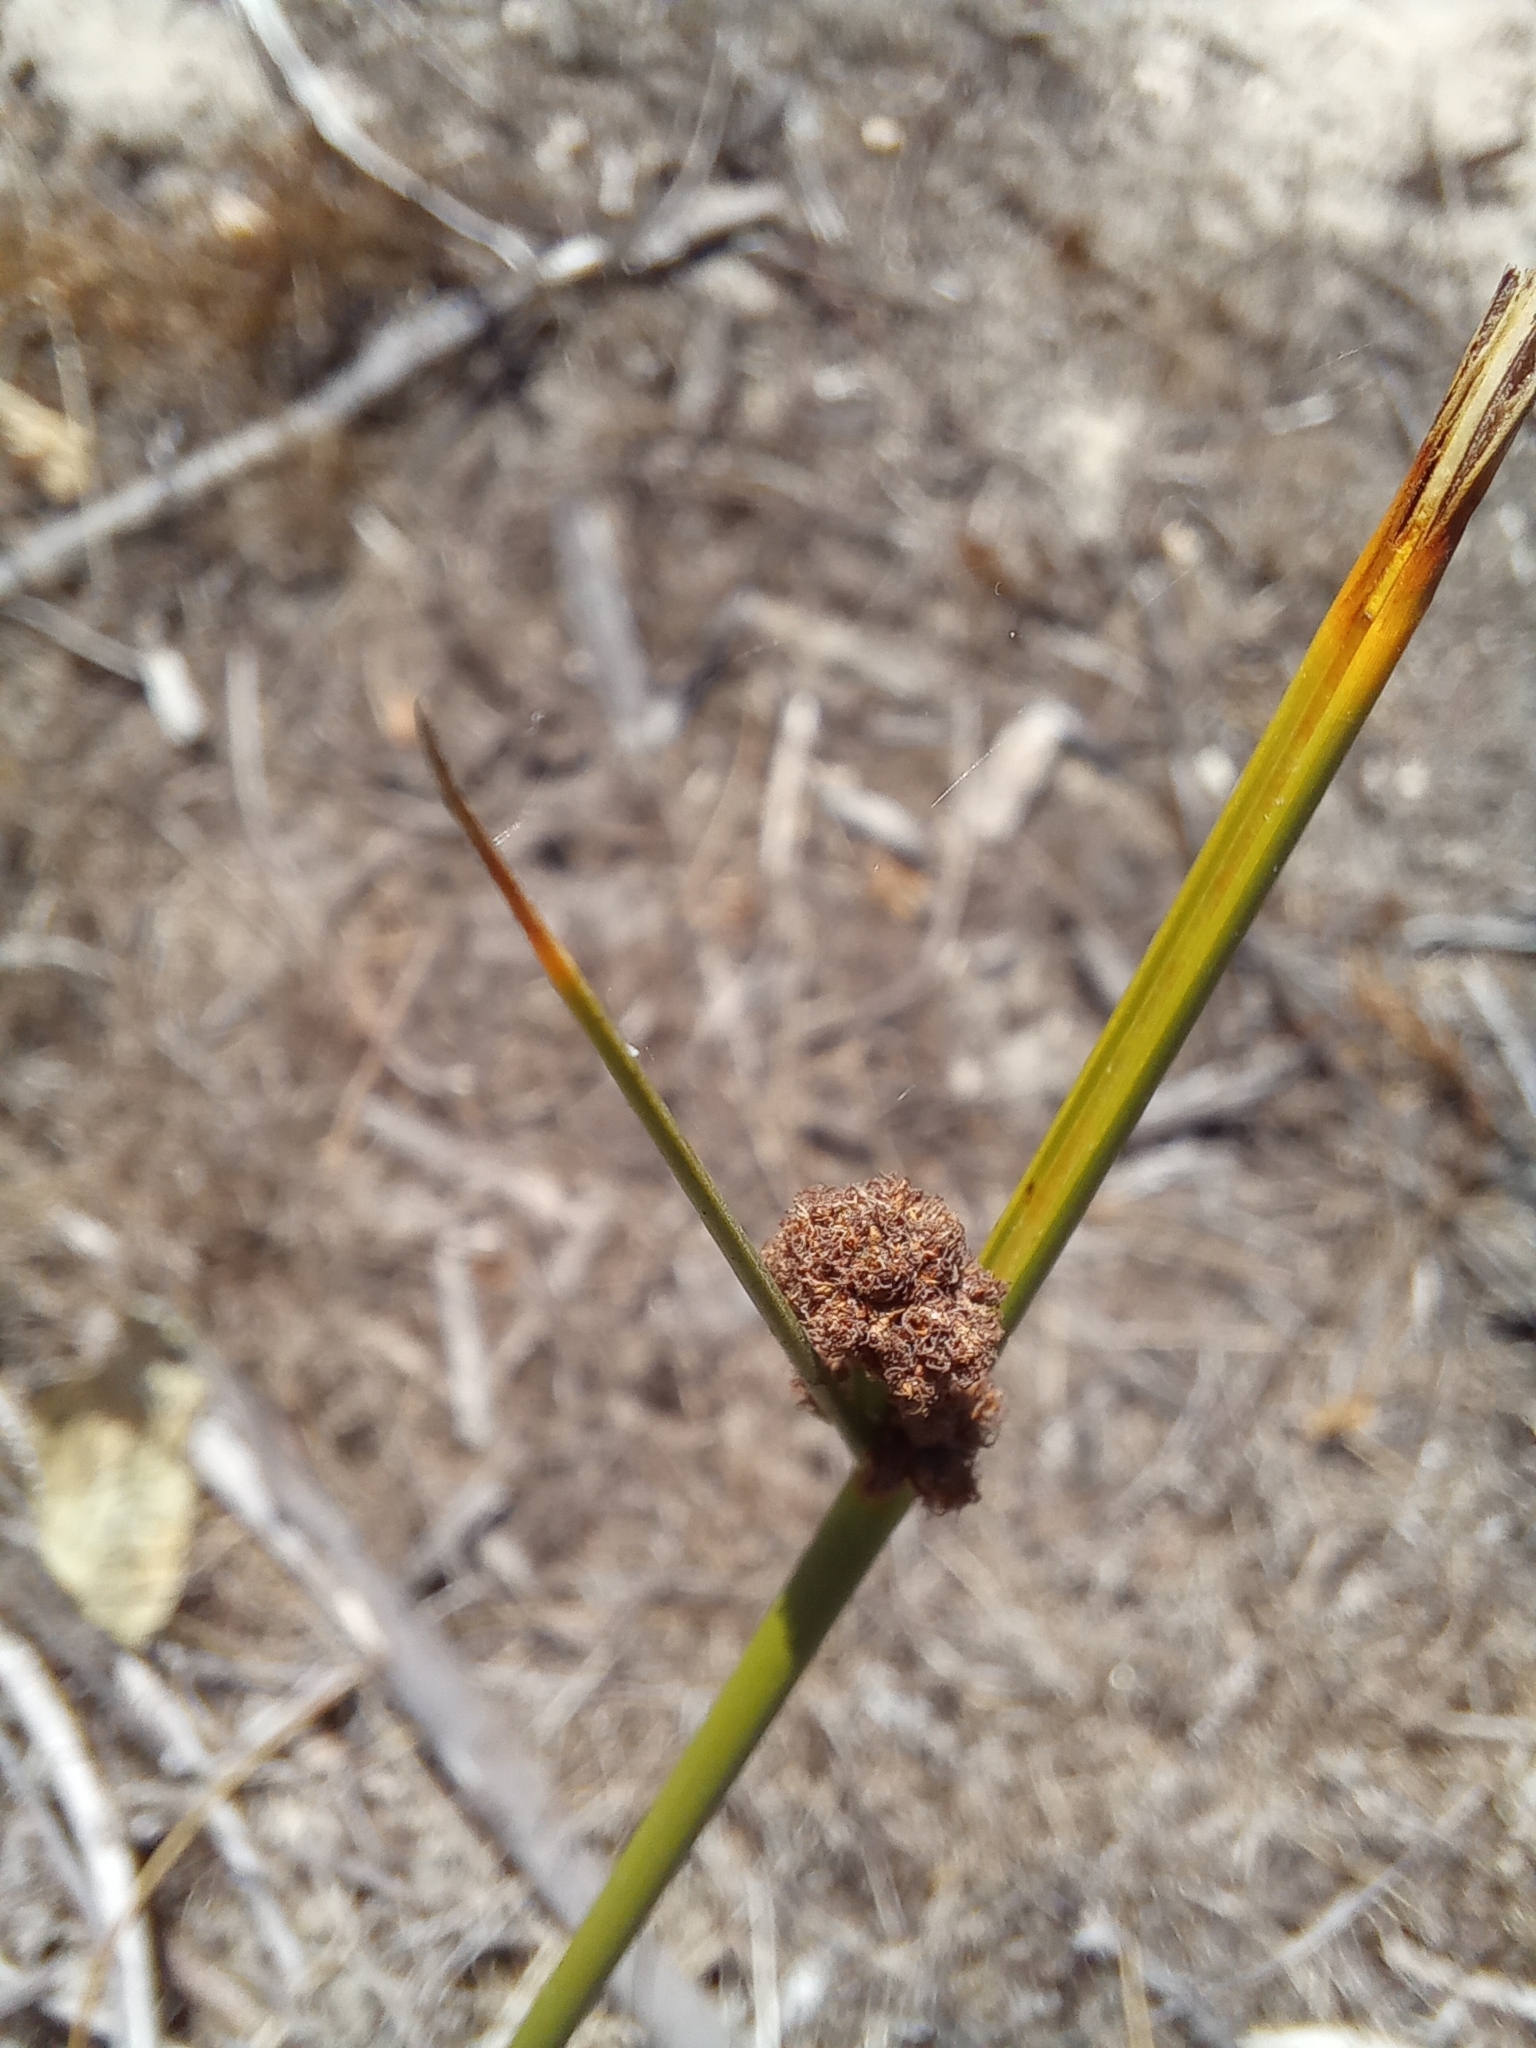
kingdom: Plantae
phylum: Tracheophyta
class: Liliopsida
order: Poales
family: Cyperaceae
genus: Scirpoides
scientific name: Scirpoides holoschoenus
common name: Round-headed club-rush
